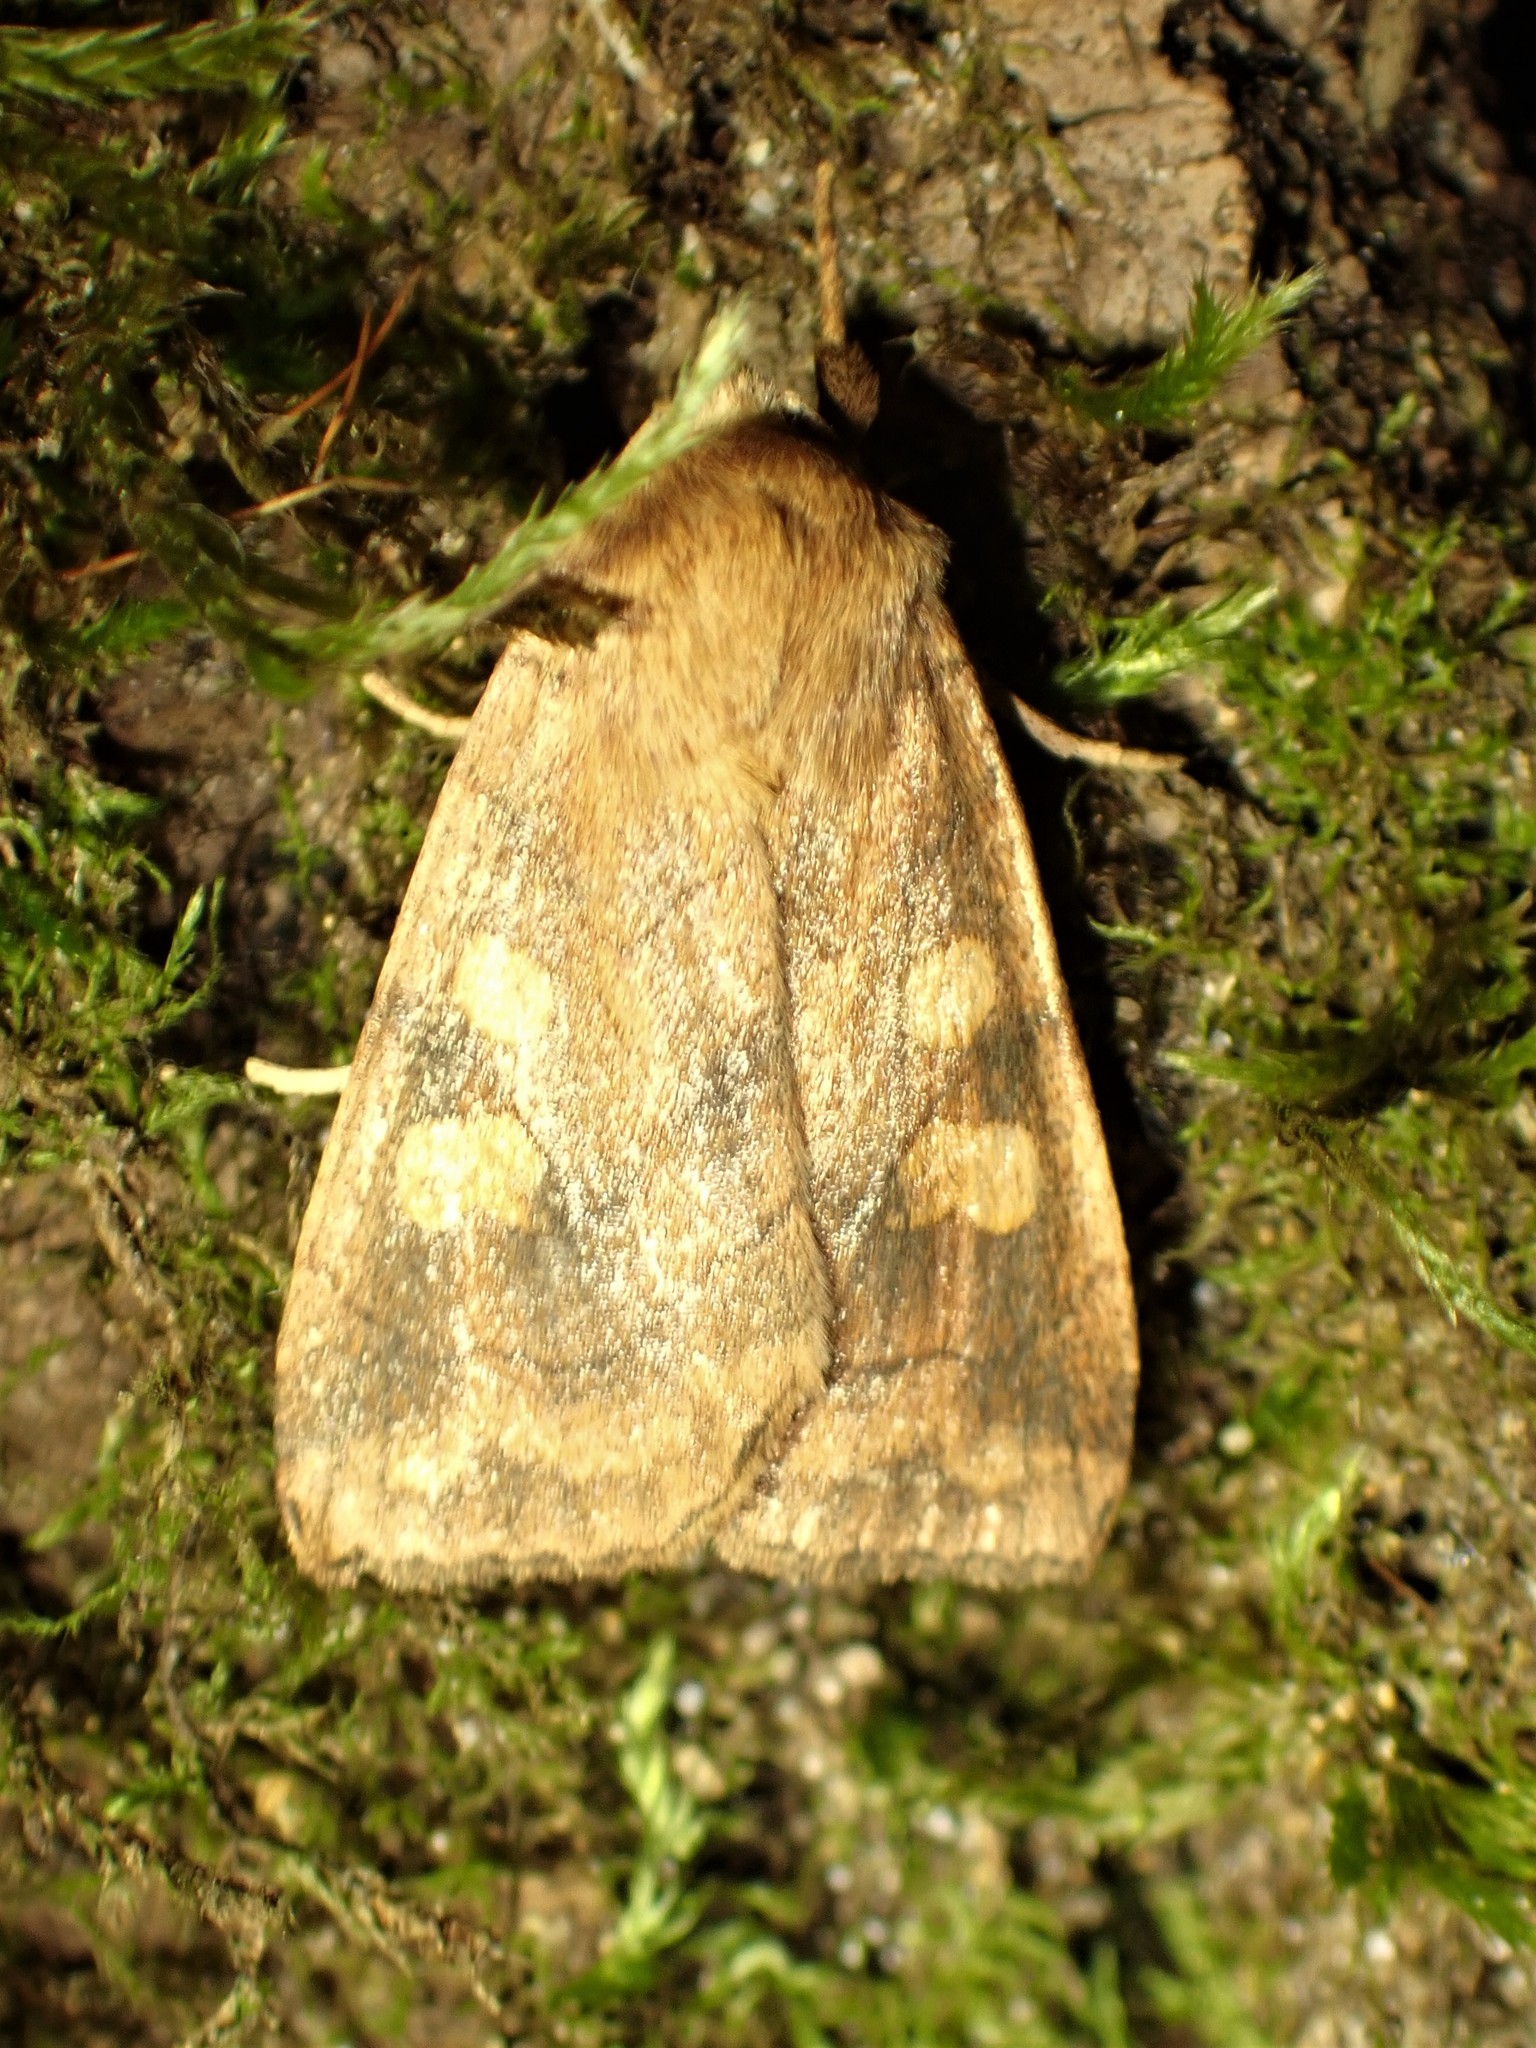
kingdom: Animalia
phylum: Arthropoda
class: Insecta
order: Lepidoptera
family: Noctuidae
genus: Enargia
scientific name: Enargia decolor
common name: Aspen twoleaf tier moth
